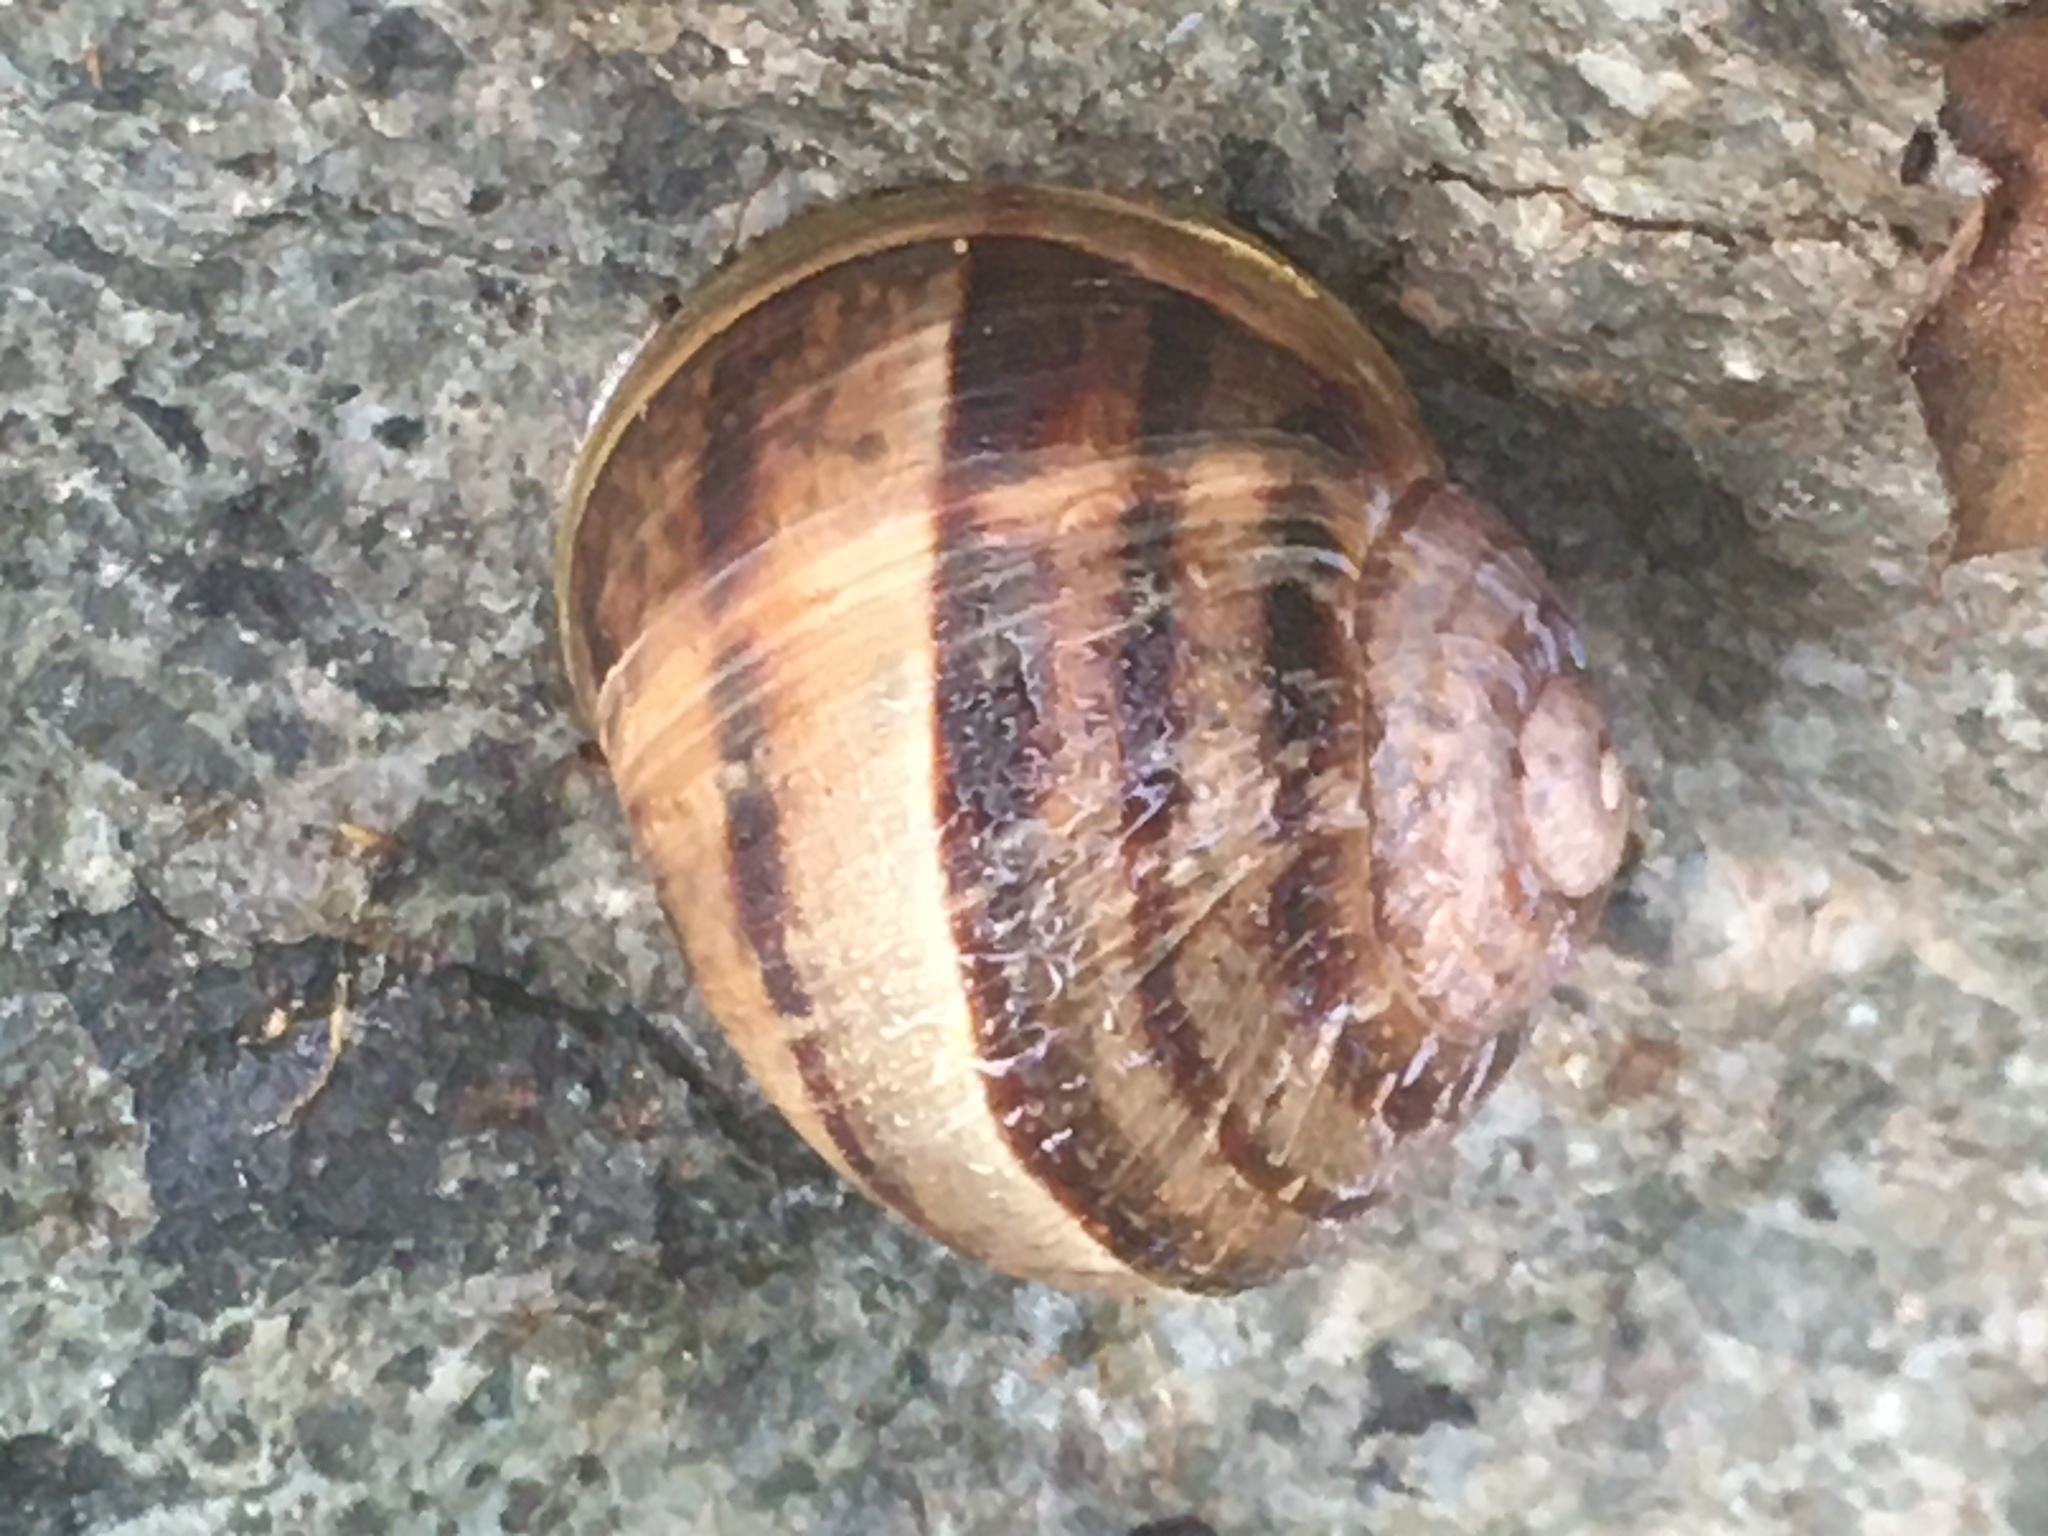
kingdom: Animalia
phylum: Mollusca
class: Gastropoda
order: Stylommatophora
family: Helicidae
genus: Cornu
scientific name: Cornu aspersum
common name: Brown garden snail
